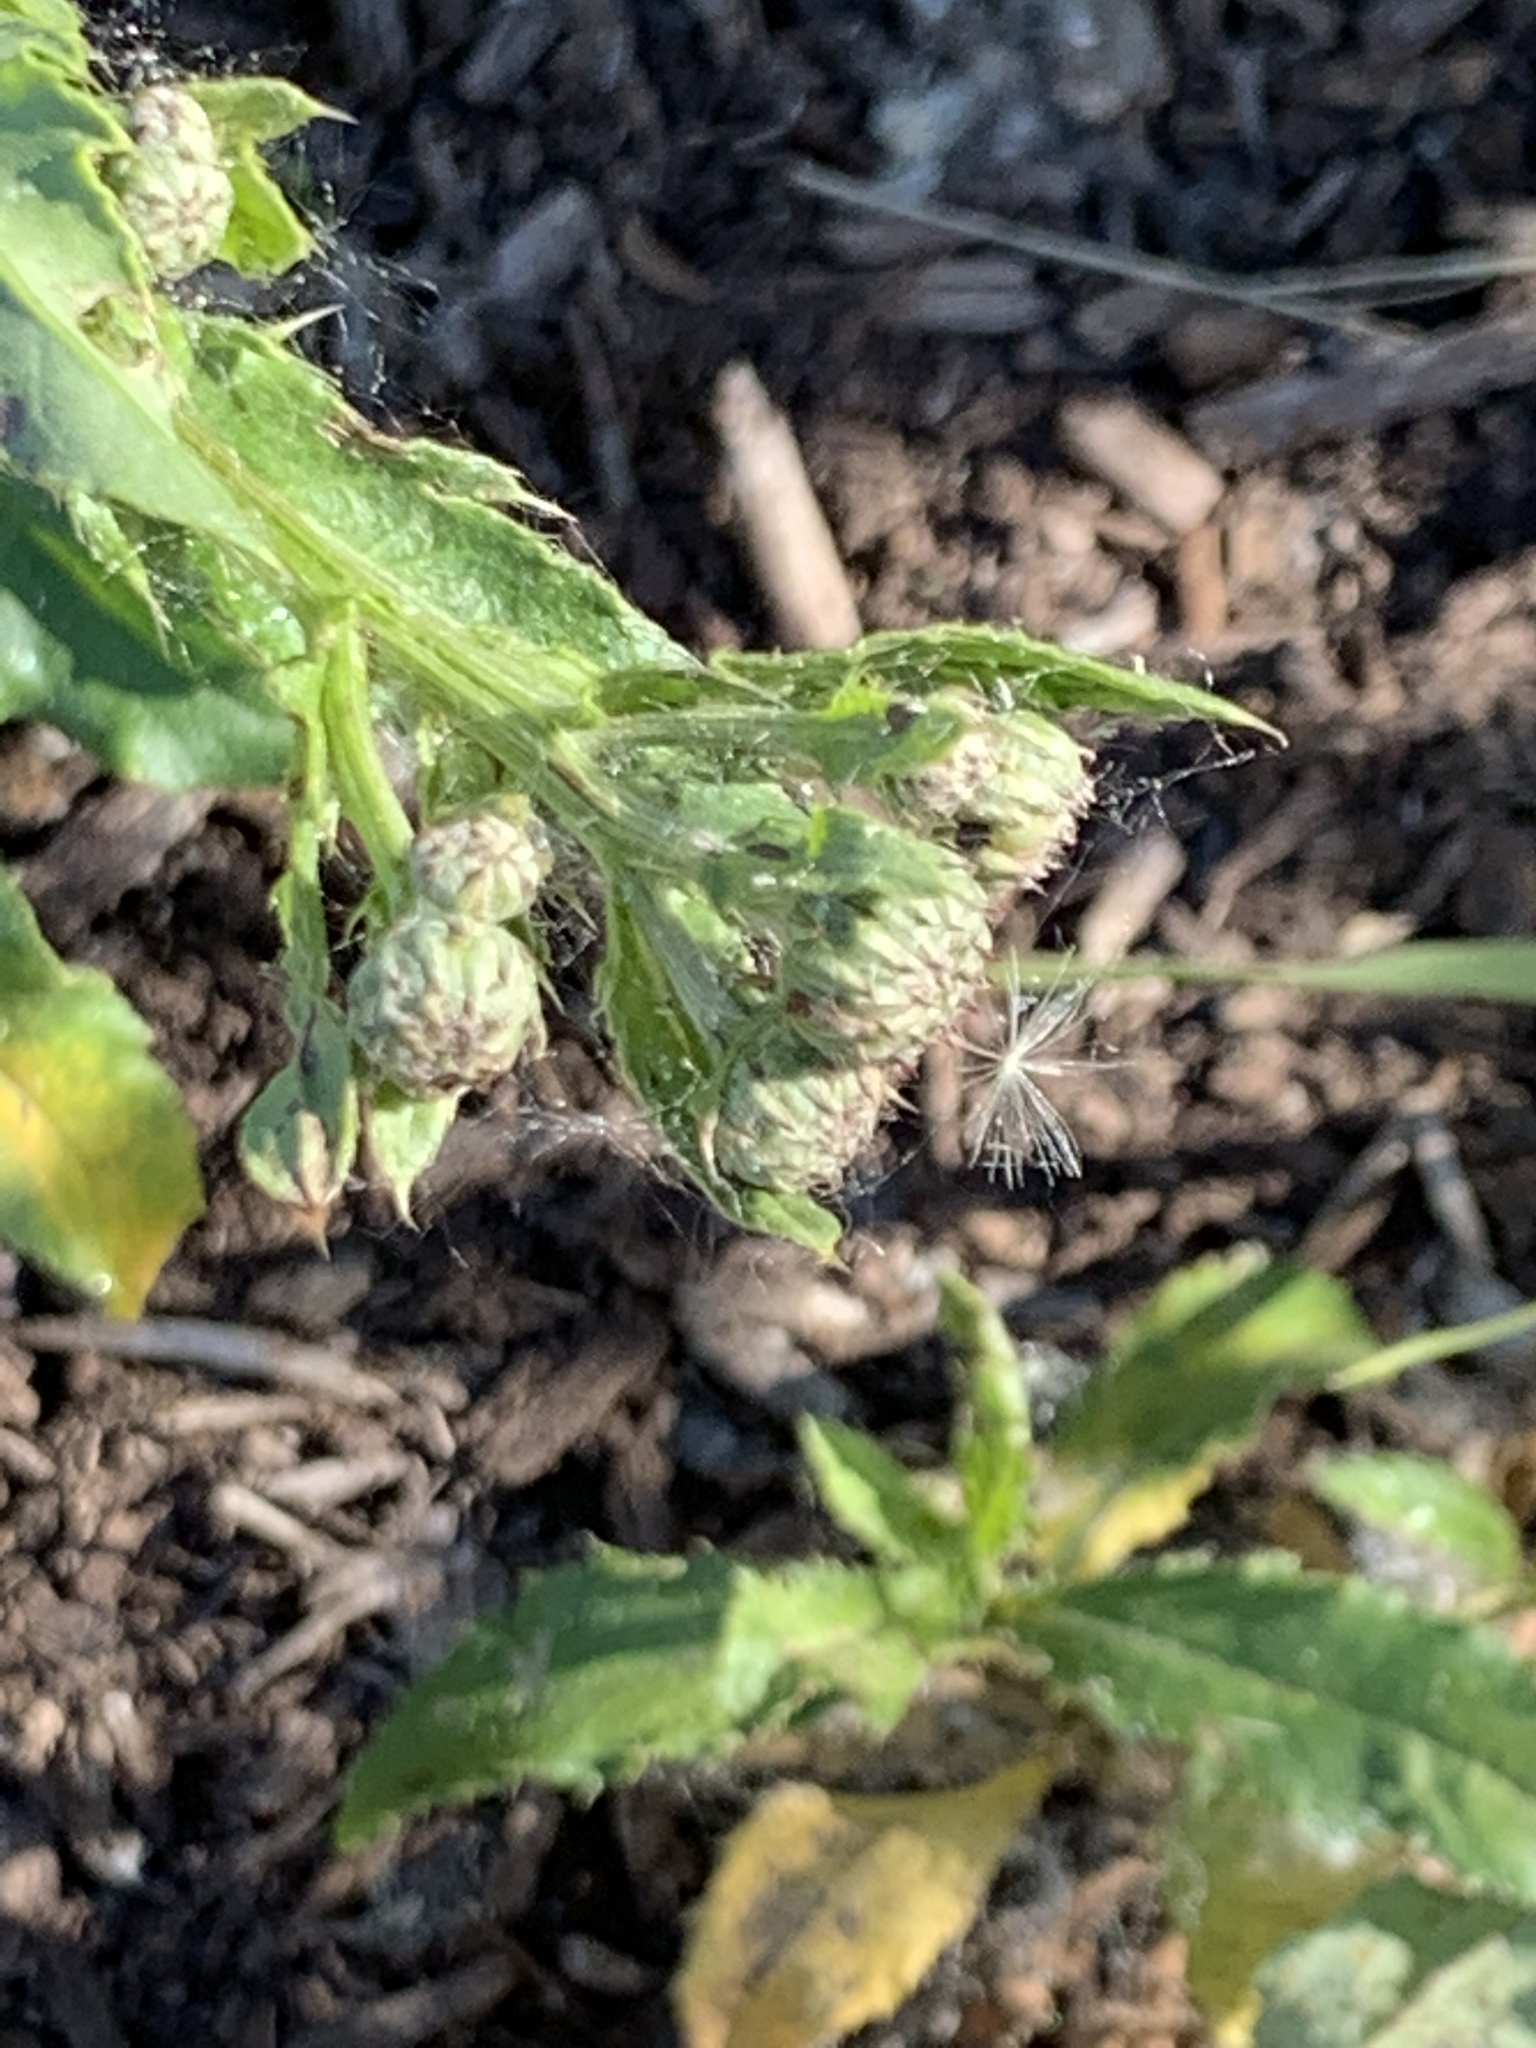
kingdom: Plantae
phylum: Tracheophyta
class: Magnoliopsida
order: Asterales
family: Asteraceae
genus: Cirsium
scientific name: Cirsium arvense
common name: Creeping thistle
